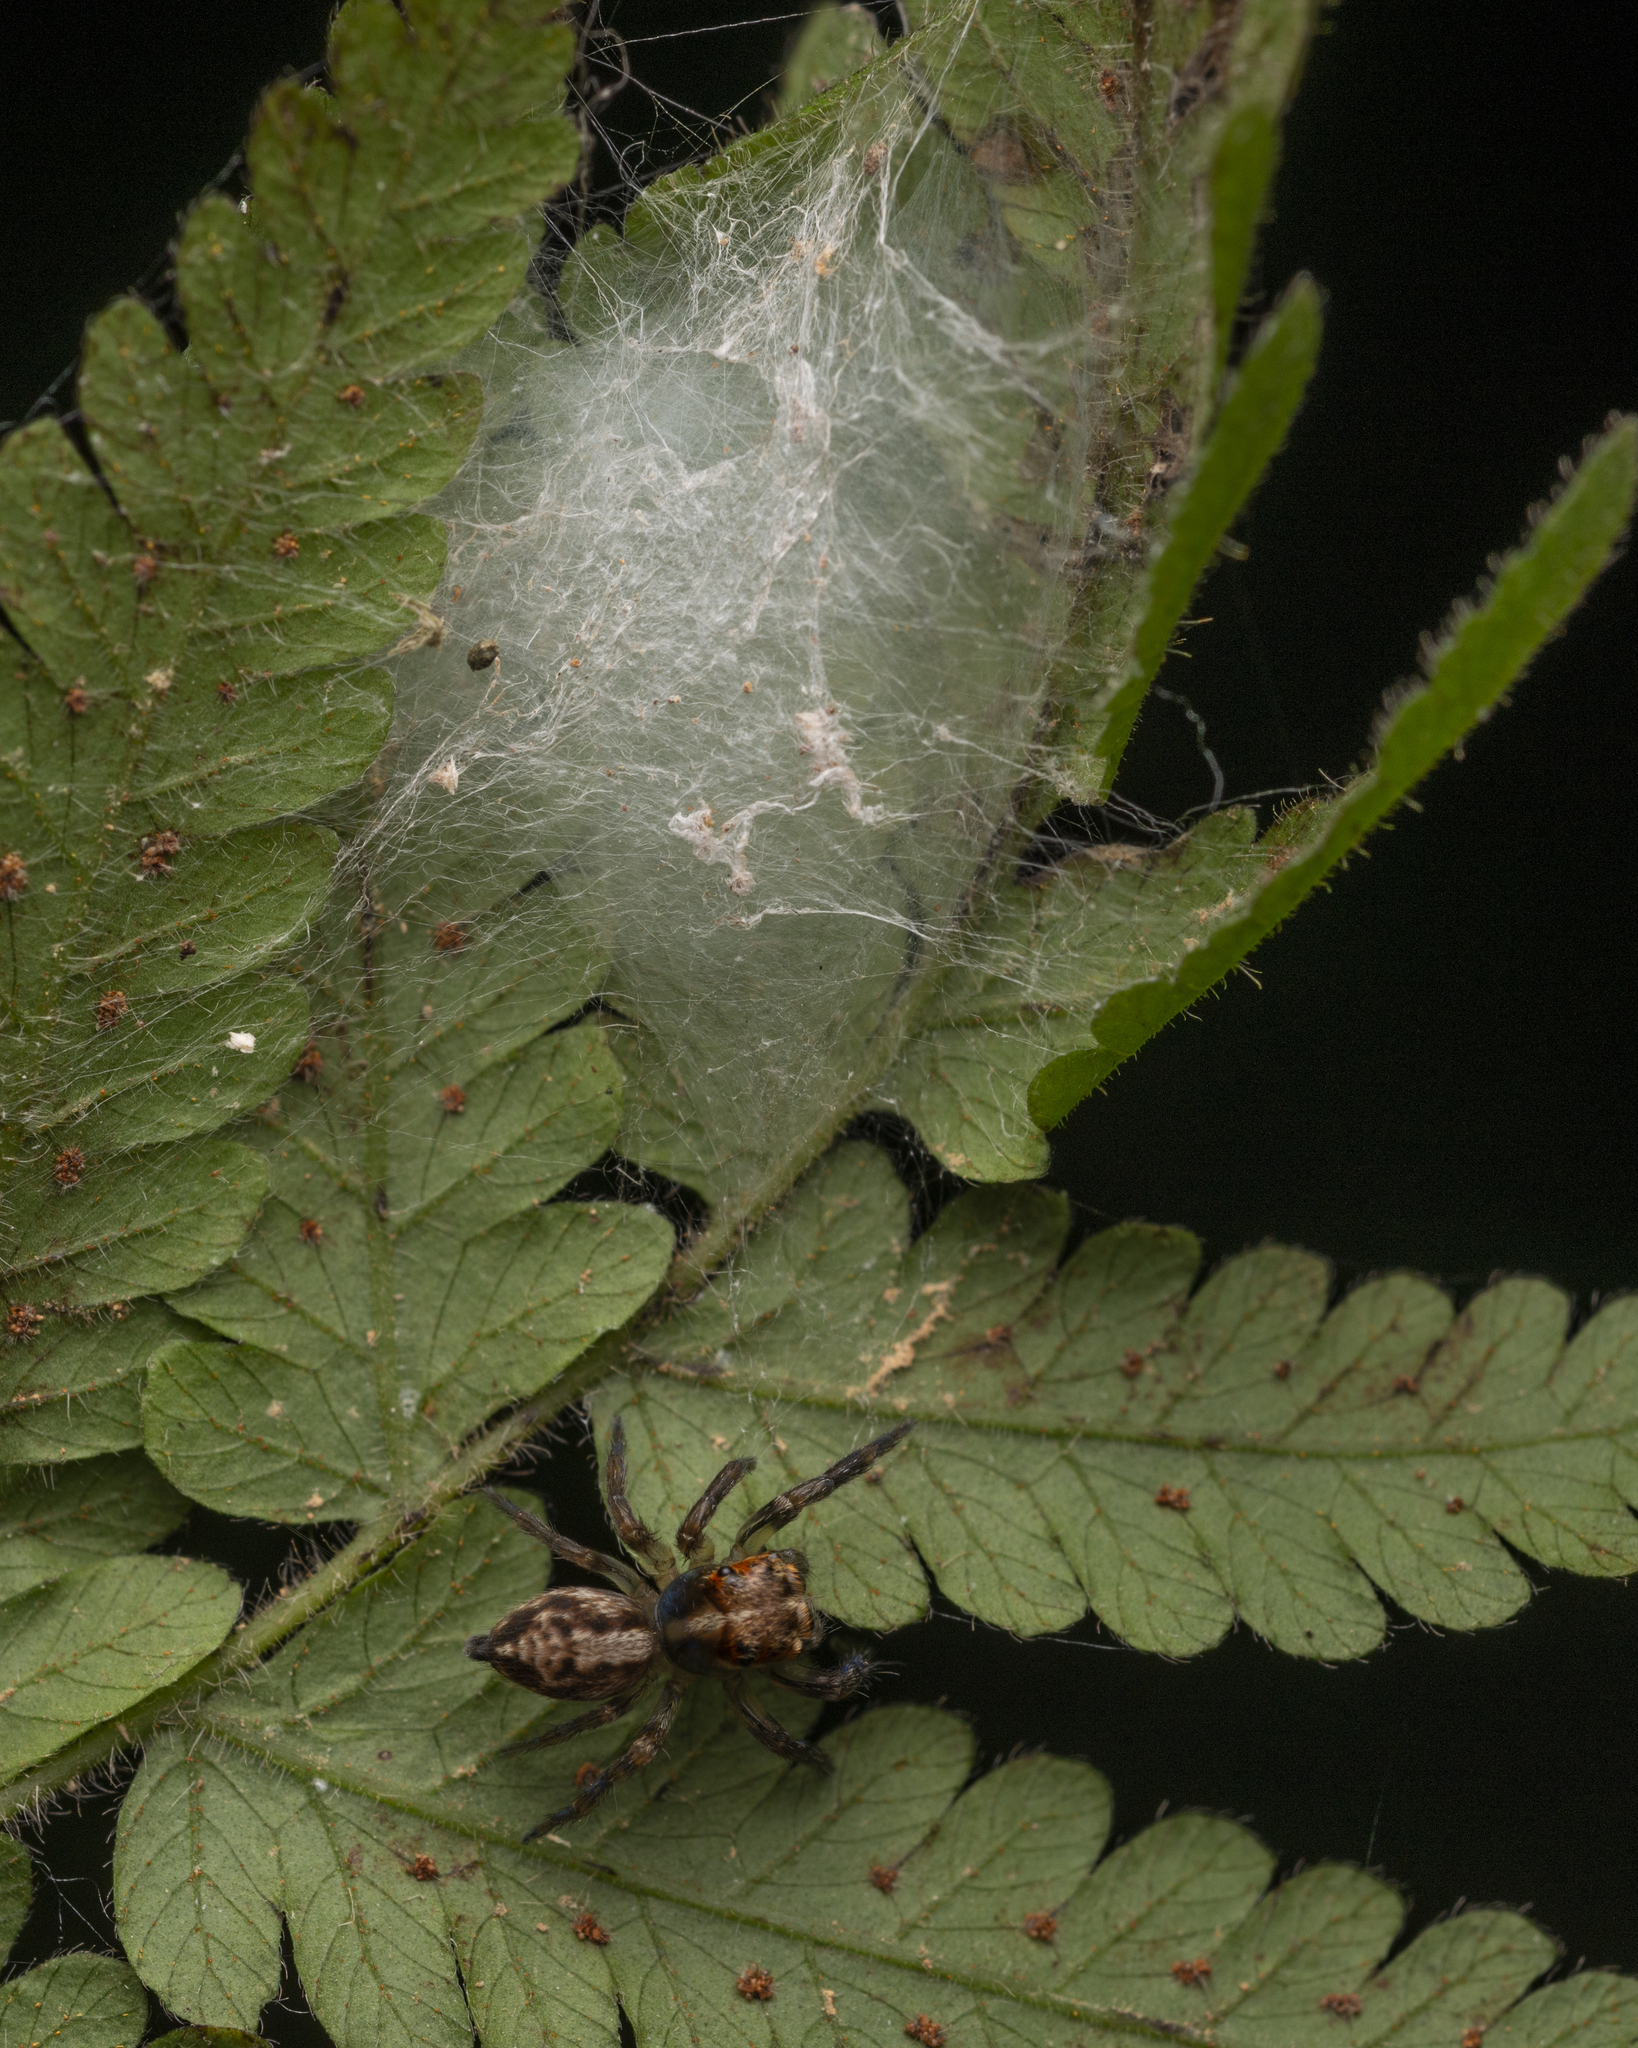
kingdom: Animalia
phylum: Arthropoda
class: Arachnida
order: Araneae
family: Salticidae
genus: Orientattus
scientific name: Orientattus hongkong
